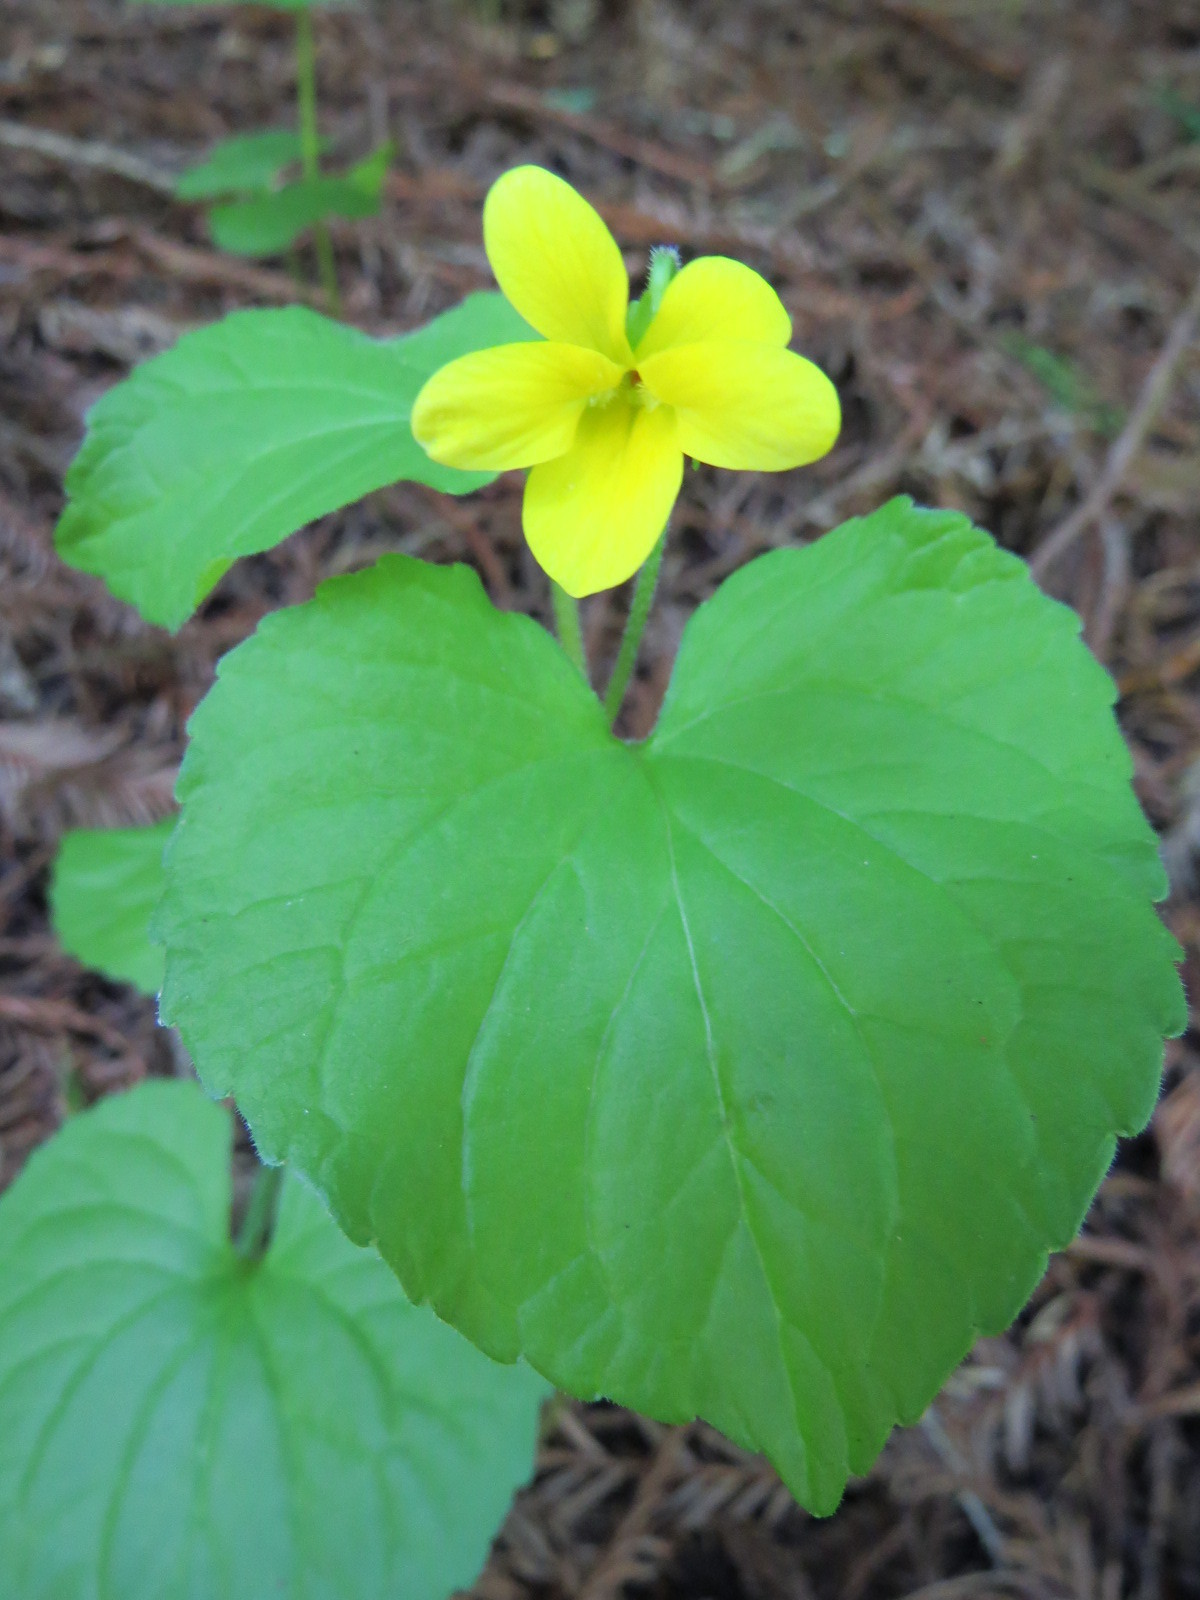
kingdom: Plantae
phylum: Tracheophyta
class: Magnoliopsida
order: Malpighiales
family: Violaceae
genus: Viola
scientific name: Viola glabella
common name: Stream violet
